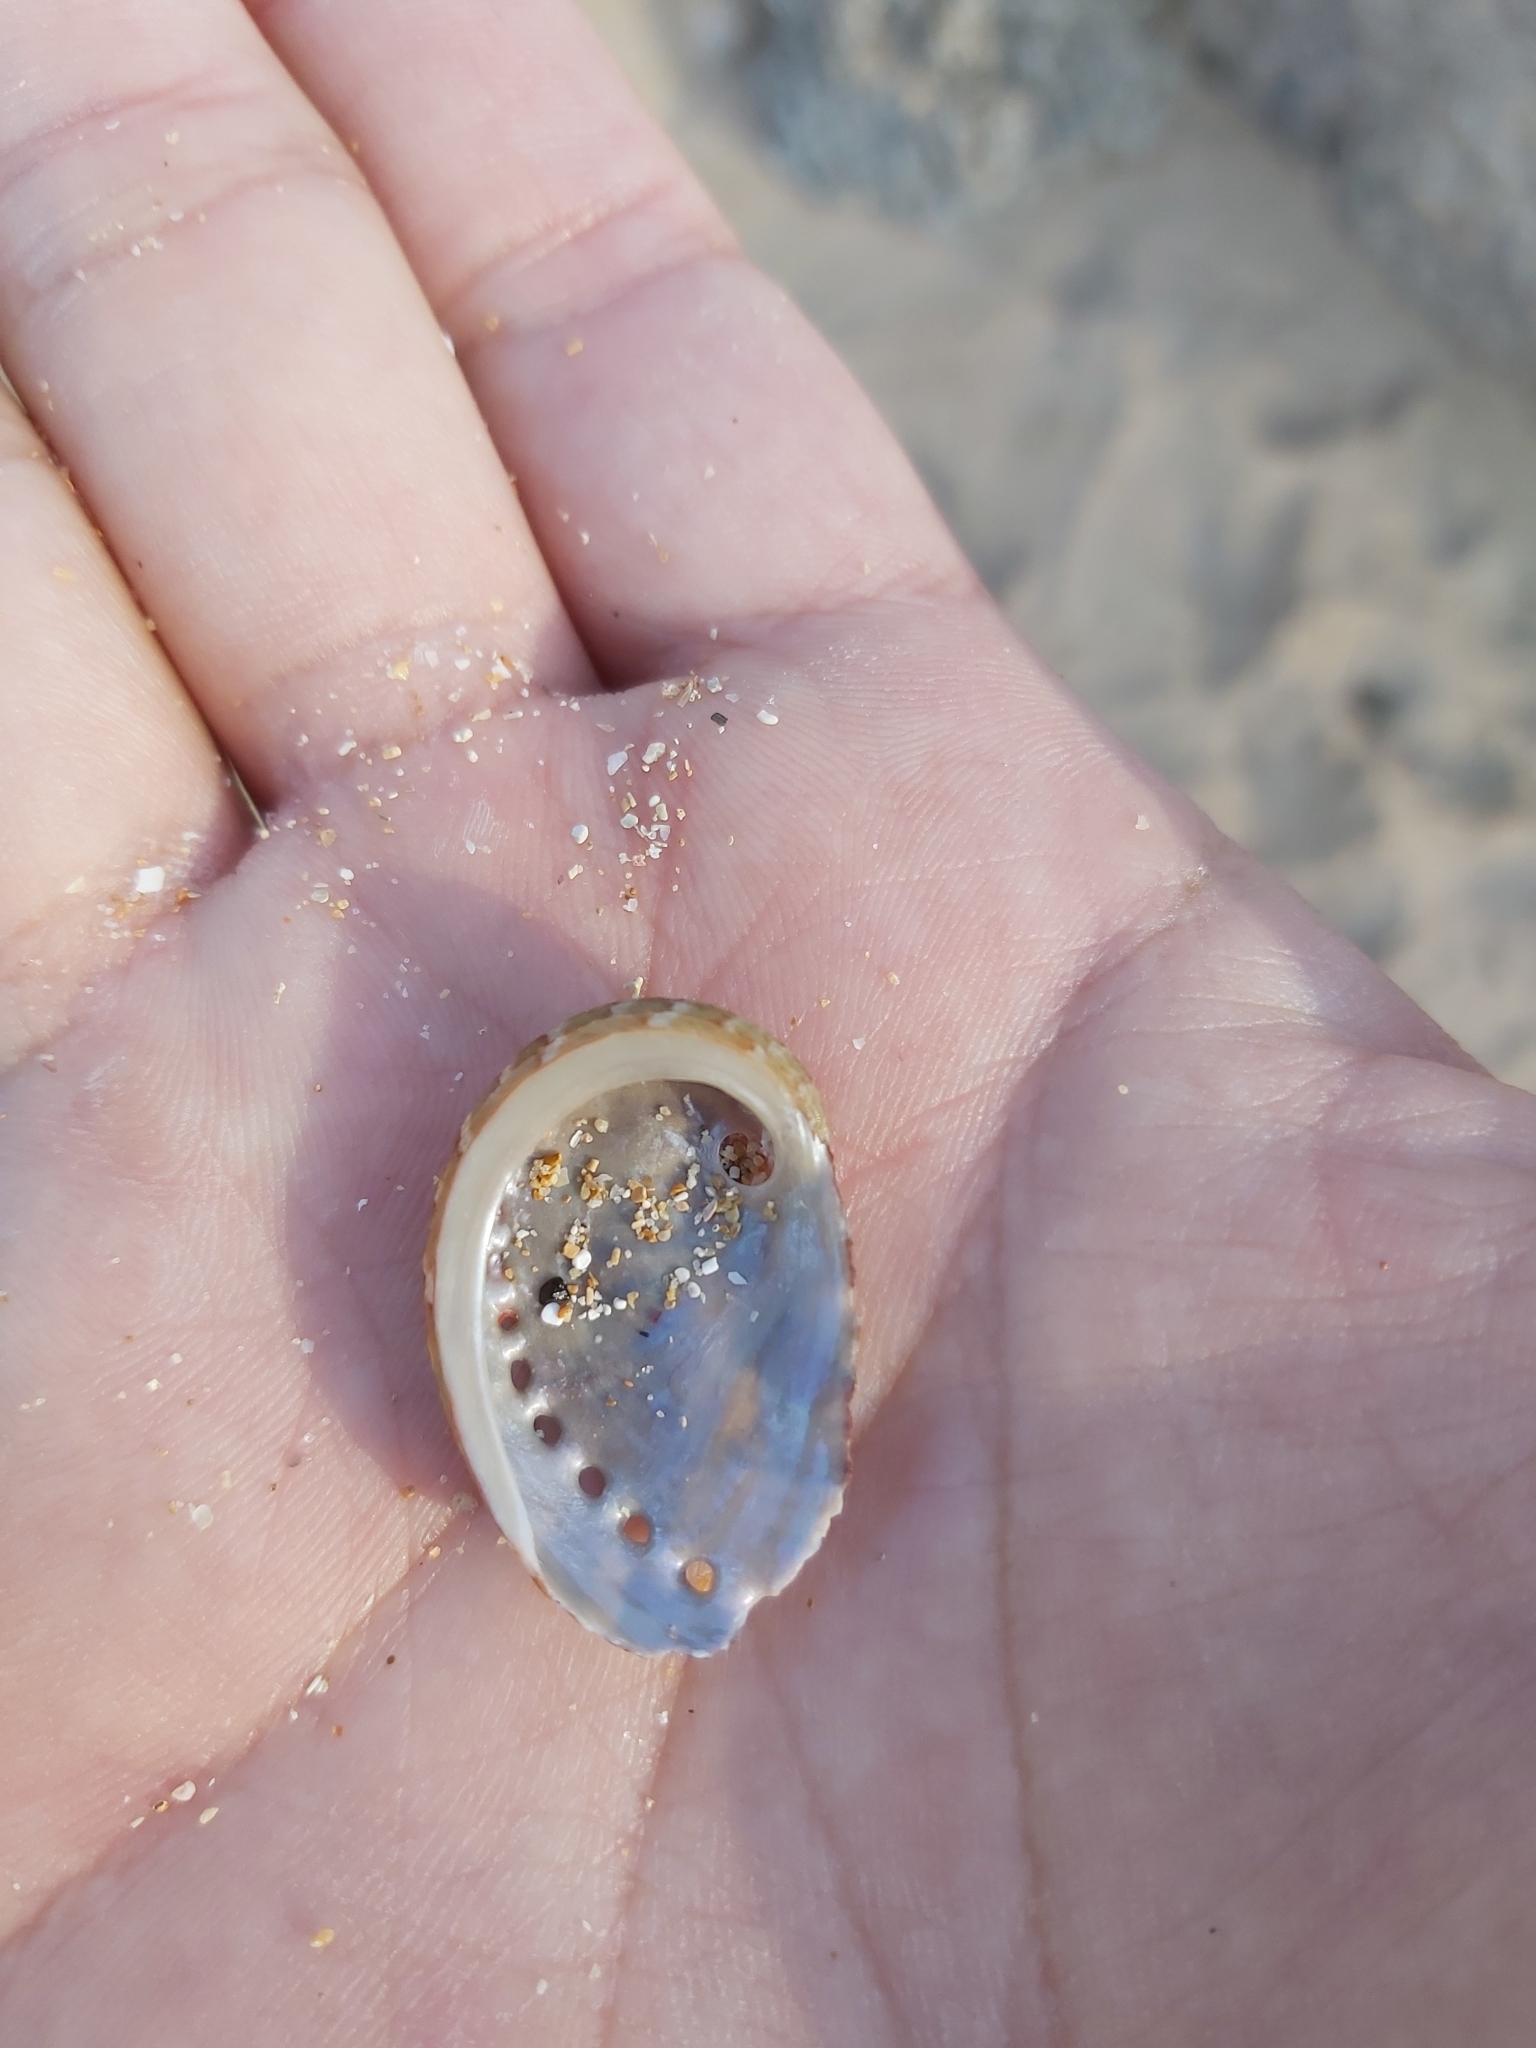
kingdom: Animalia
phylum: Mollusca
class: Gastropoda
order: Lepetellida
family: Haliotidae
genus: Haliotis
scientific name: Haliotis coccoradiata
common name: Reddish-rayed abalone
